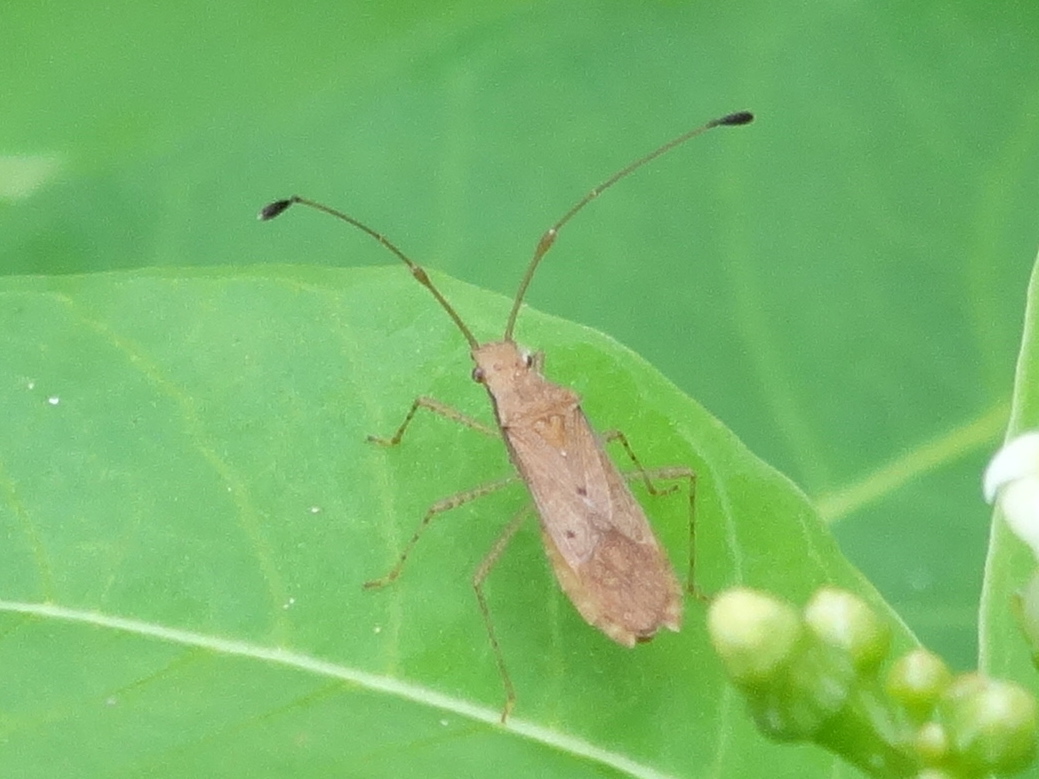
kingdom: Animalia
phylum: Arthropoda
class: Insecta
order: Hemiptera
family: Coreidae
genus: Madura
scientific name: Madura
